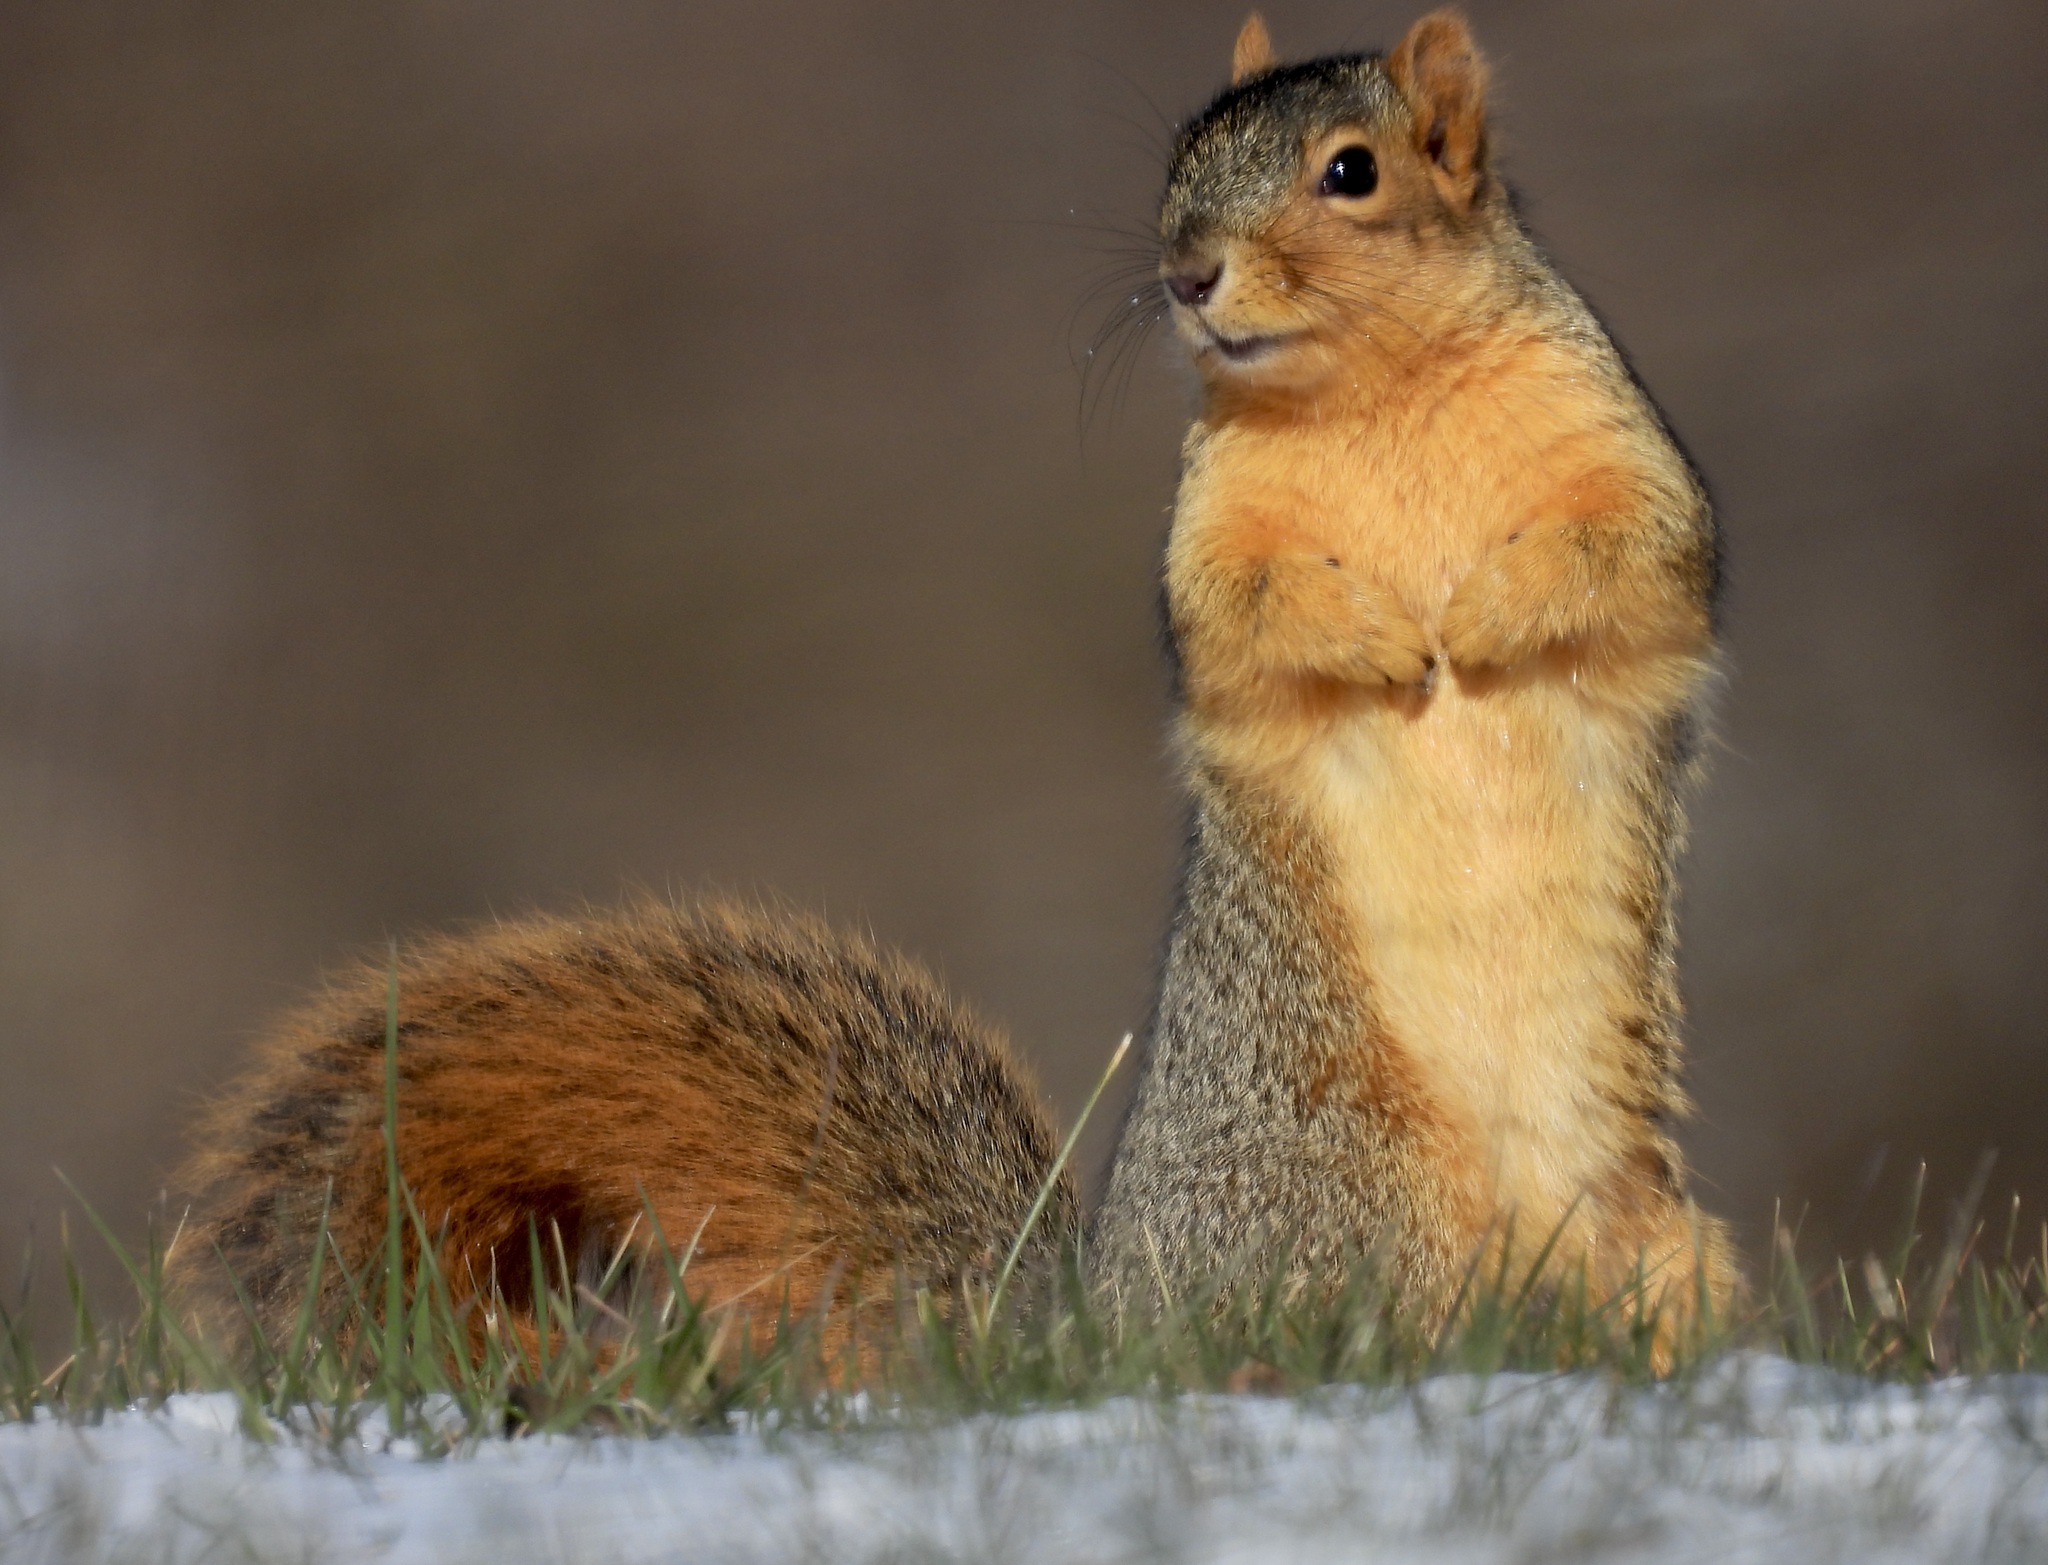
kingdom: Animalia
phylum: Chordata
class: Mammalia
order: Rodentia
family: Sciuridae
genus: Sciurus
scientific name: Sciurus niger
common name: Fox squirrel
